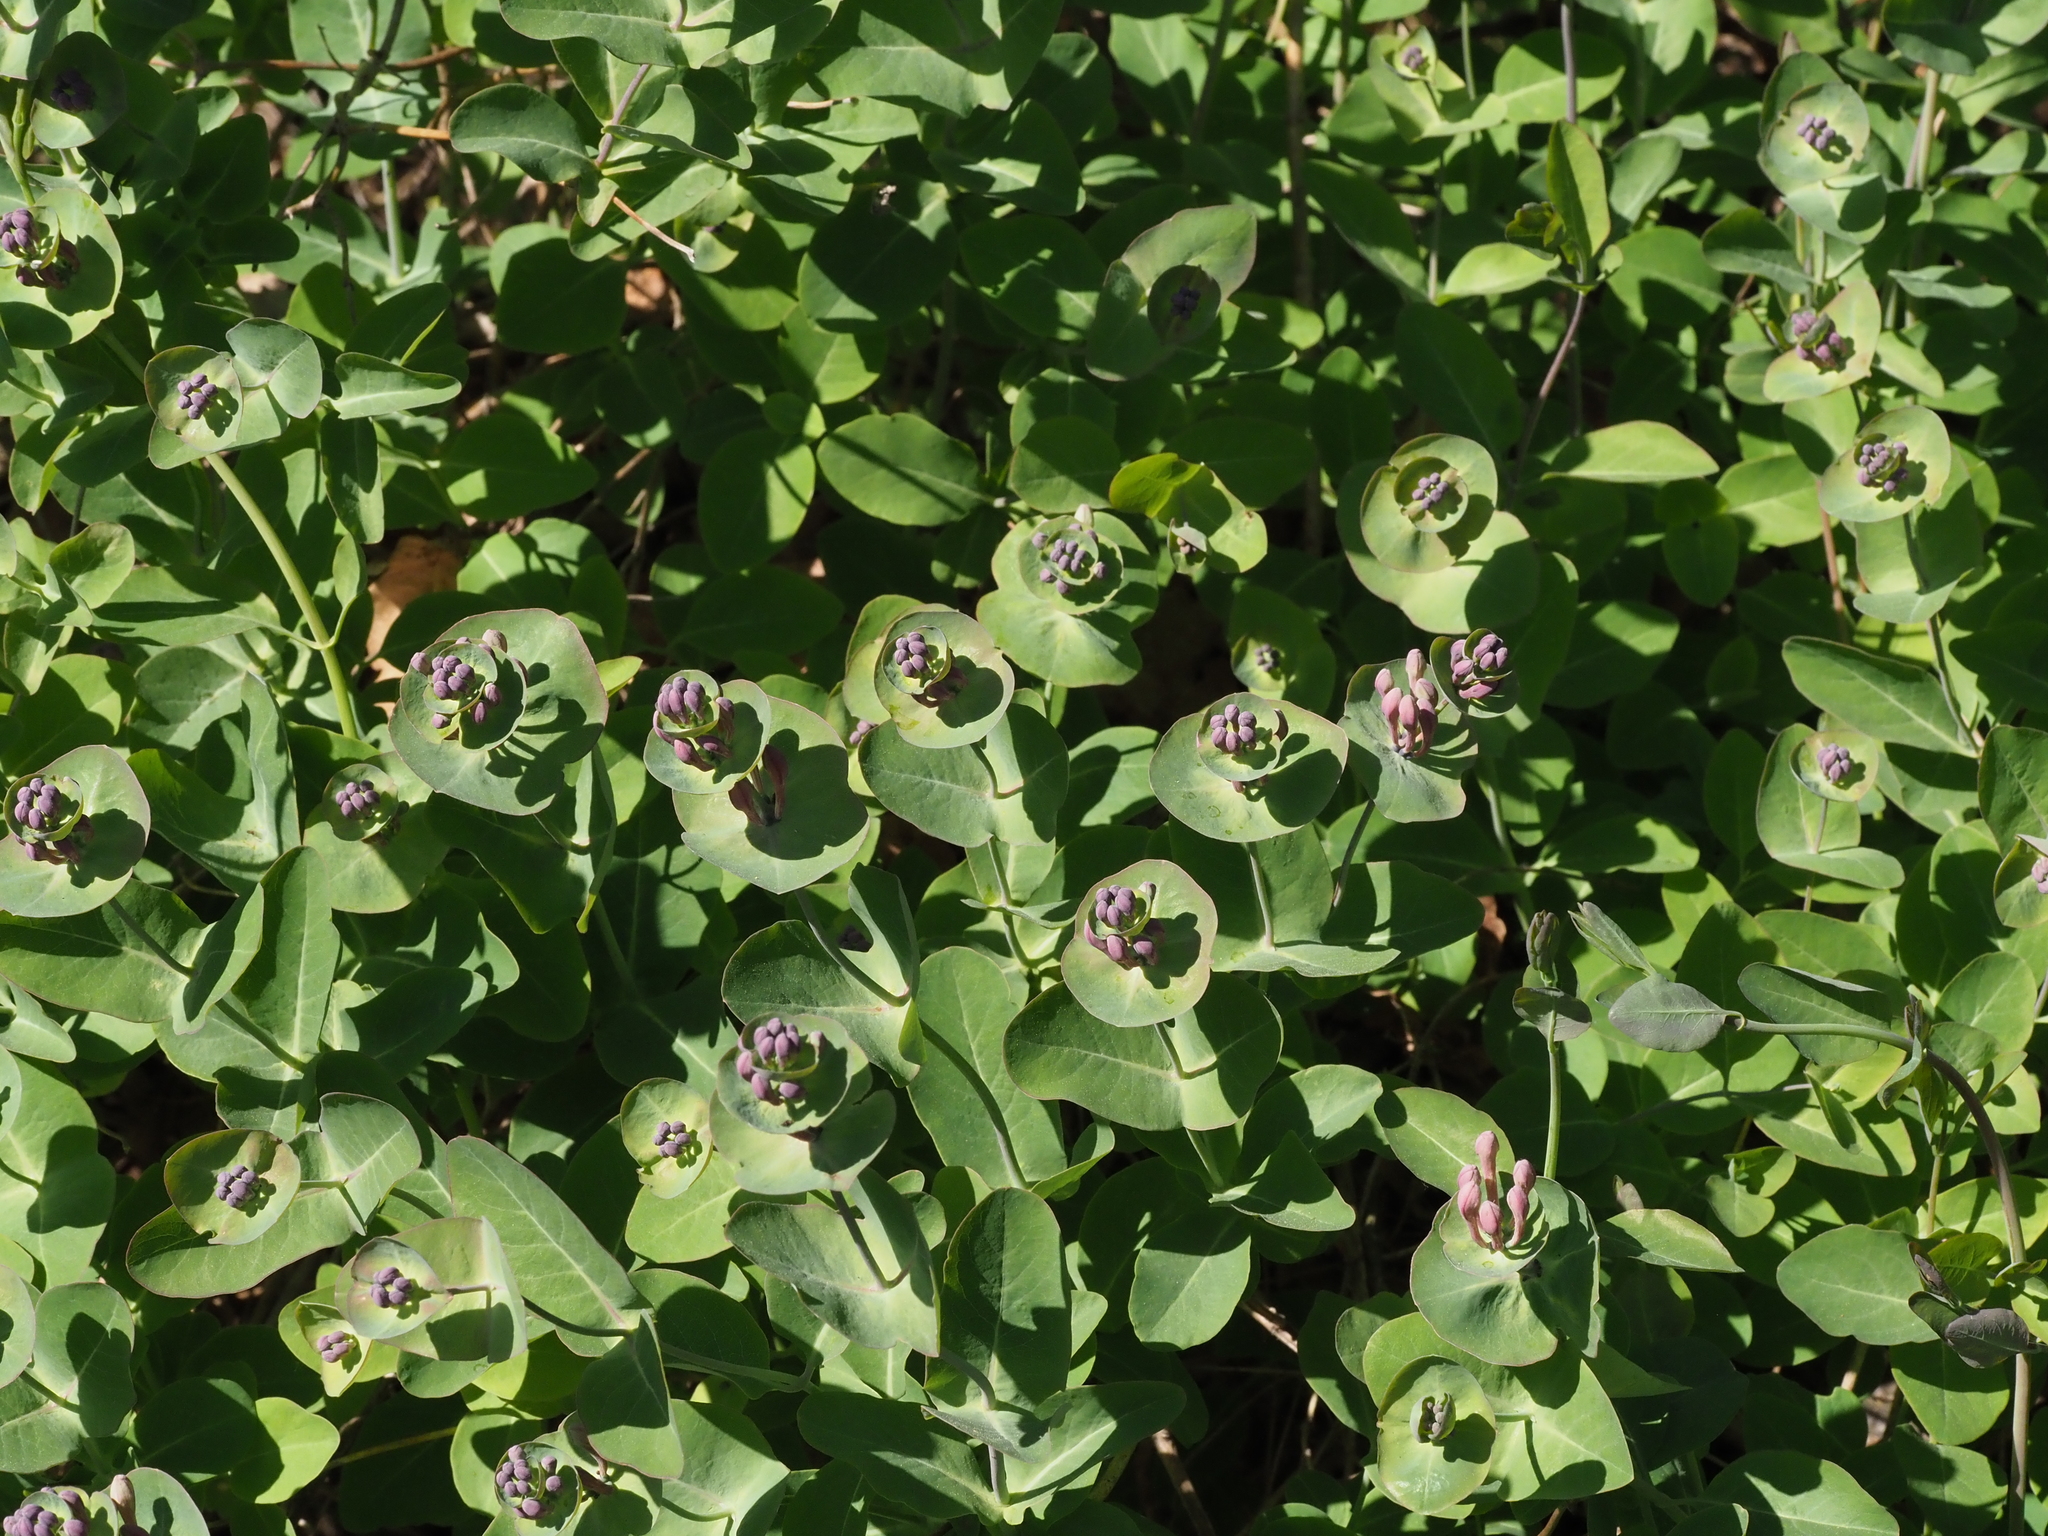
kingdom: Plantae
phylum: Tracheophyta
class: Magnoliopsida
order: Dipsacales
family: Caprifoliaceae
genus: Lonicera
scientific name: Lonicera caprifolium
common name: Perfoliate honeysuckle
